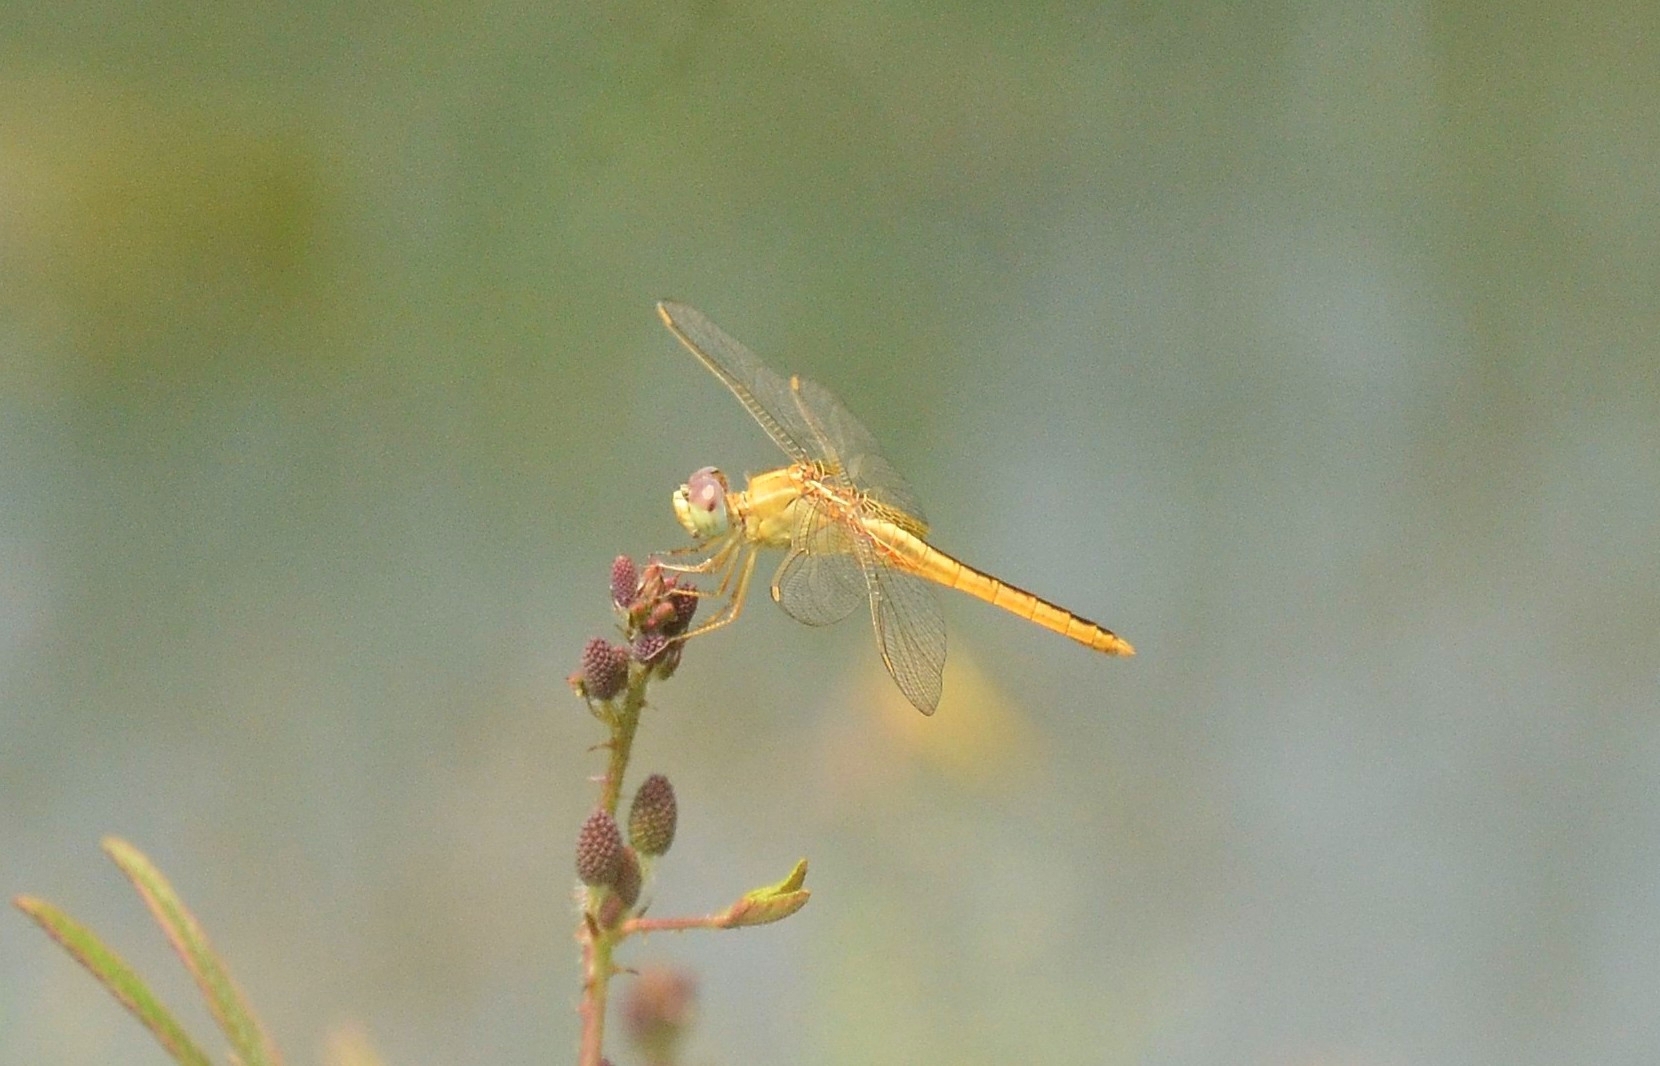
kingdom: Animalia
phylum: Arthropoda
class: Insecta
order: Odonata
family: Libellulidae
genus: Crocothemis
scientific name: Crocothemis servilia
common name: Scarlet skimmer
